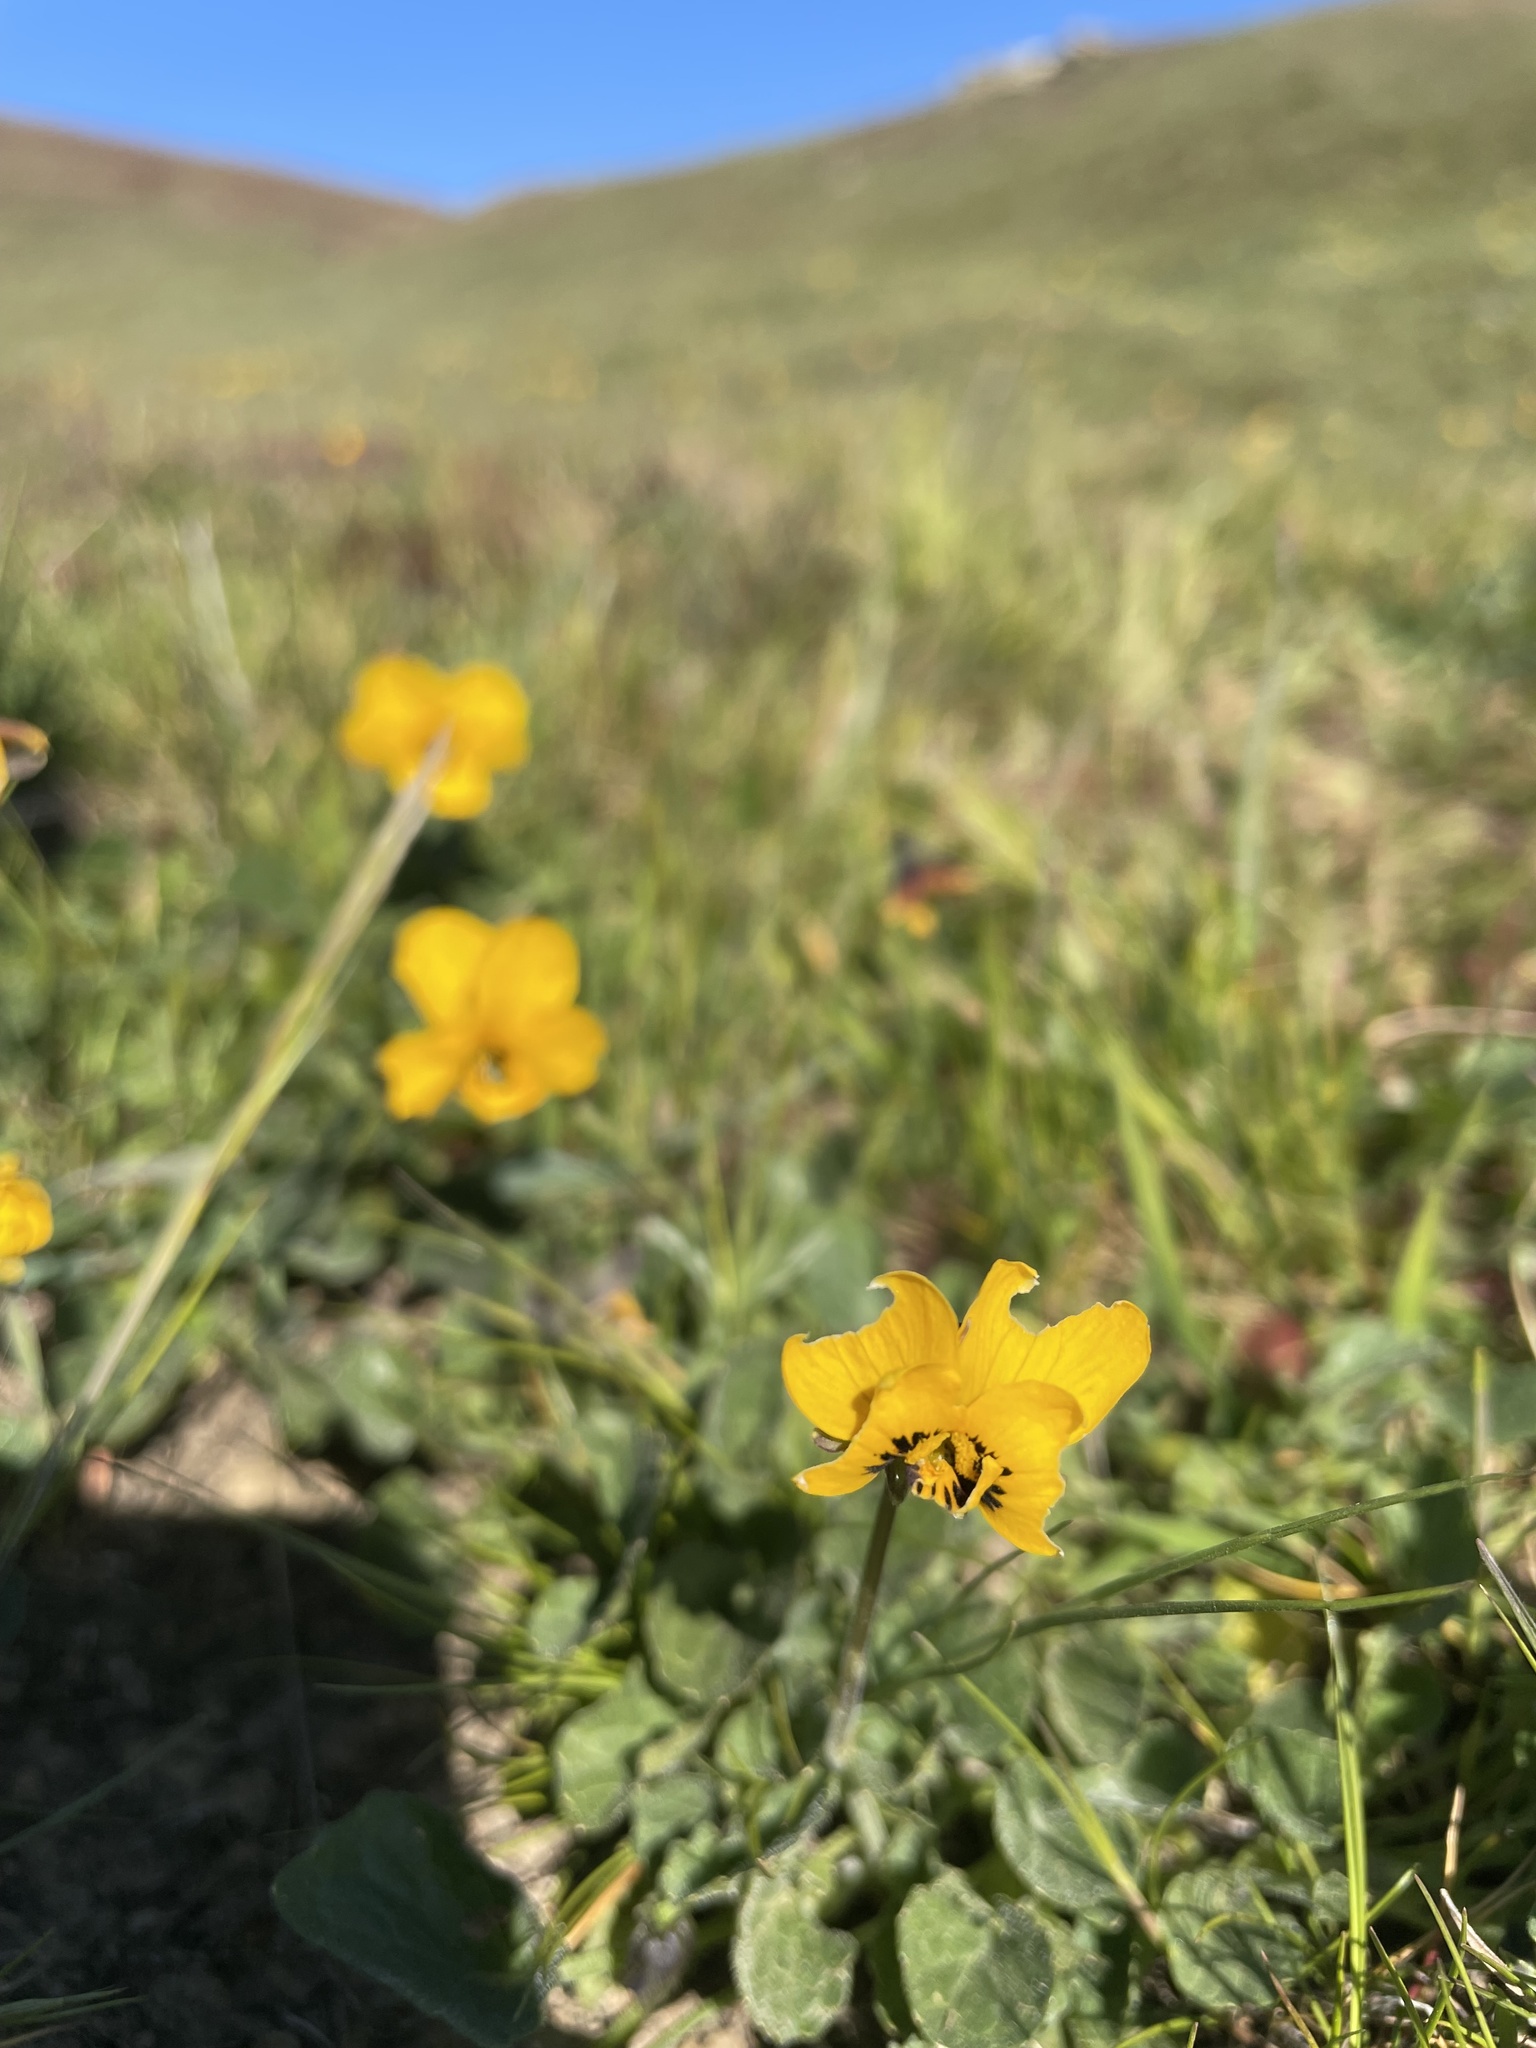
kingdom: Plantae
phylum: Tracheophyta
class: Magnoliopsida
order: Malpighiales
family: Violaceae
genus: Viola
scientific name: Viola pedunculata
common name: California golden violet
